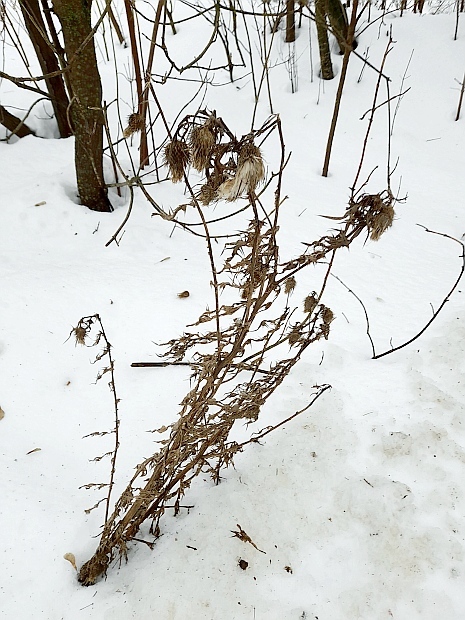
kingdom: Plantae
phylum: Tracheophyta
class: Magnoliopsida
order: Asterales
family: Asteraceae
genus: Cirsium
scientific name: Cirsium vulgare
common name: Bull thistle
